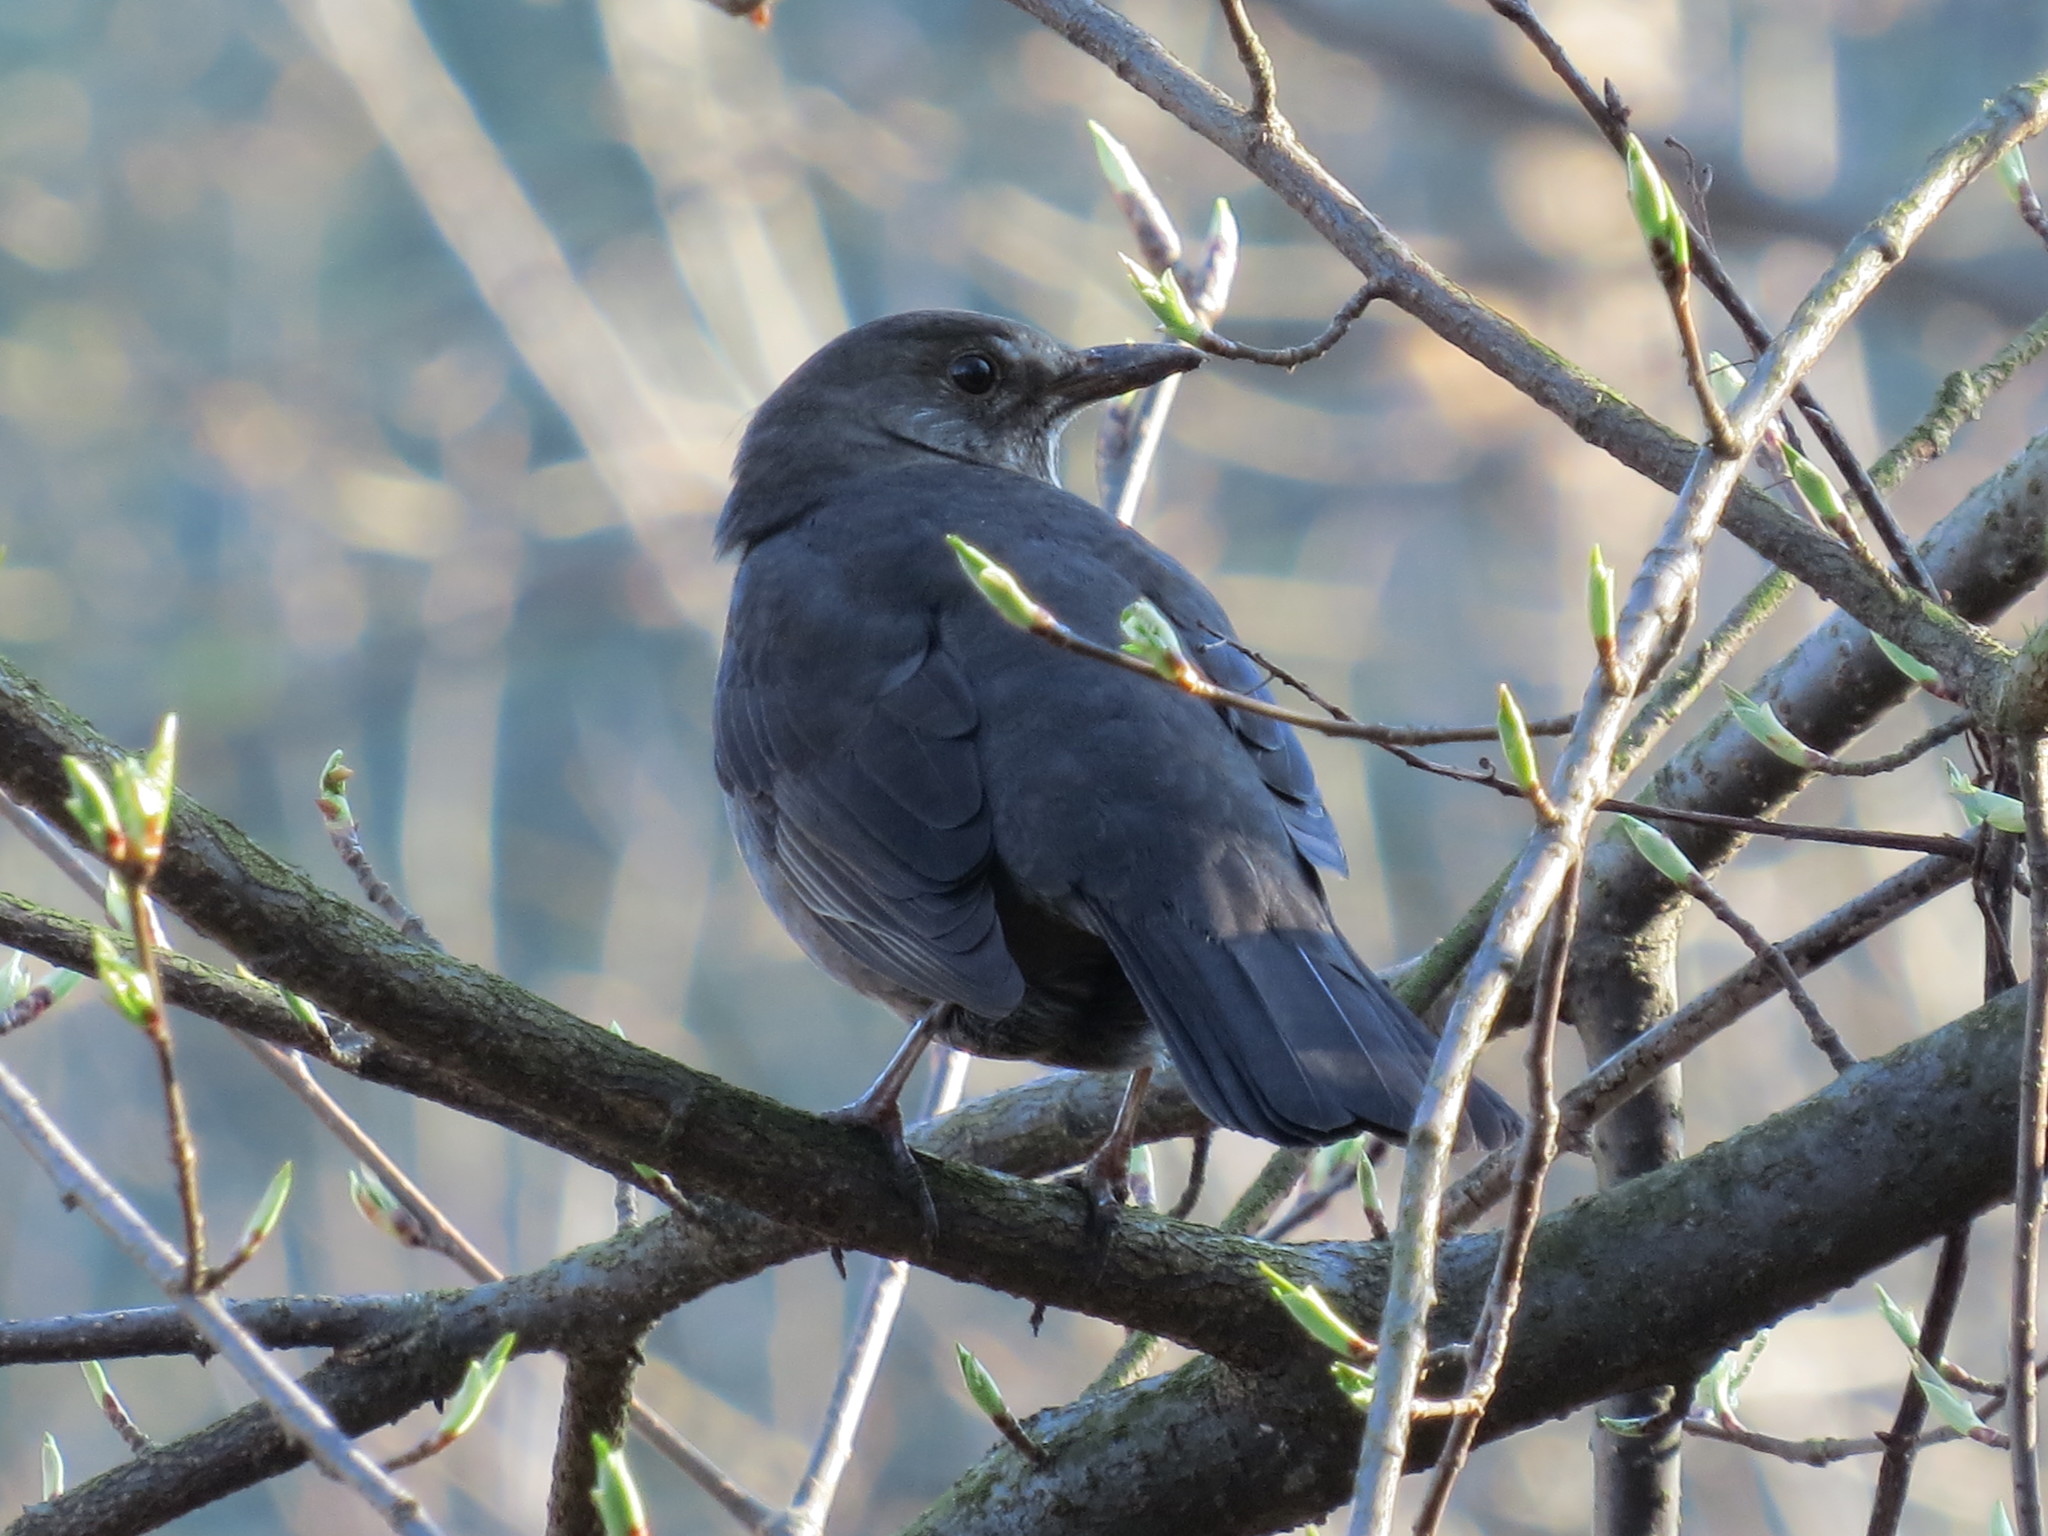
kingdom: Animalia
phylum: Chordata
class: Aves
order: Passeriformes
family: Turdidae
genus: Turdus
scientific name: Turdus merula
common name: Common blackbird
